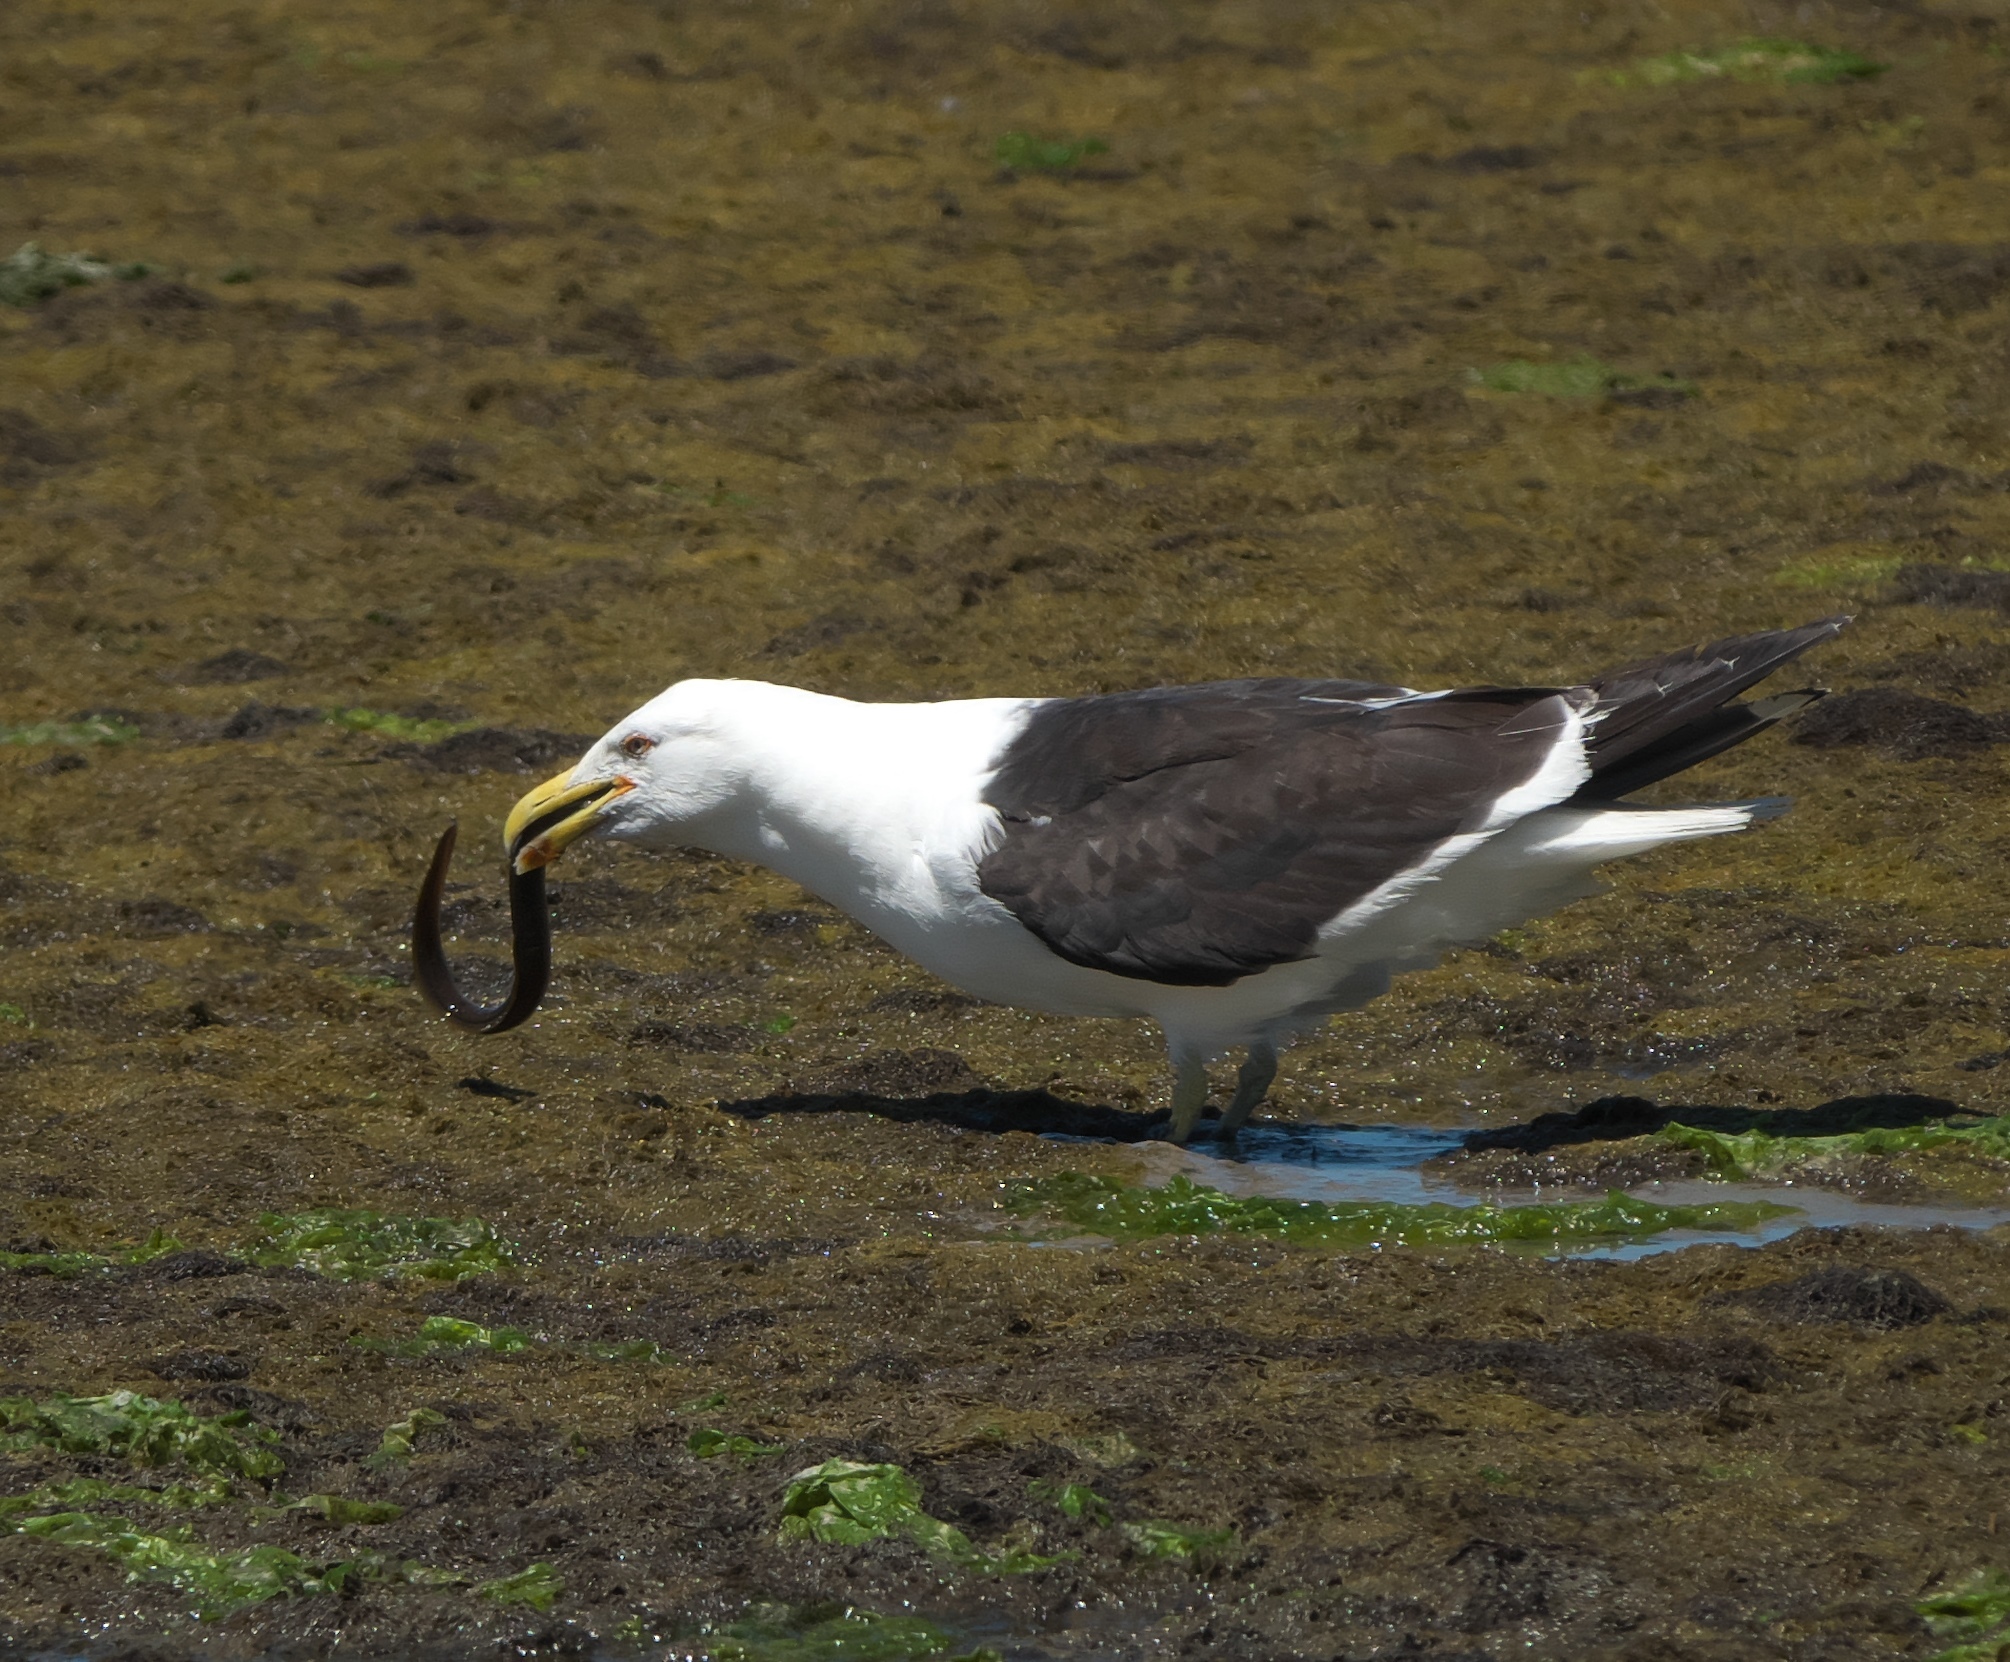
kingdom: Animalia
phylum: Chordata
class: Aves
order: Charadriiformes
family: Laridae
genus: Larus
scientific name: Larus dominicanus
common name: Kelp gull
